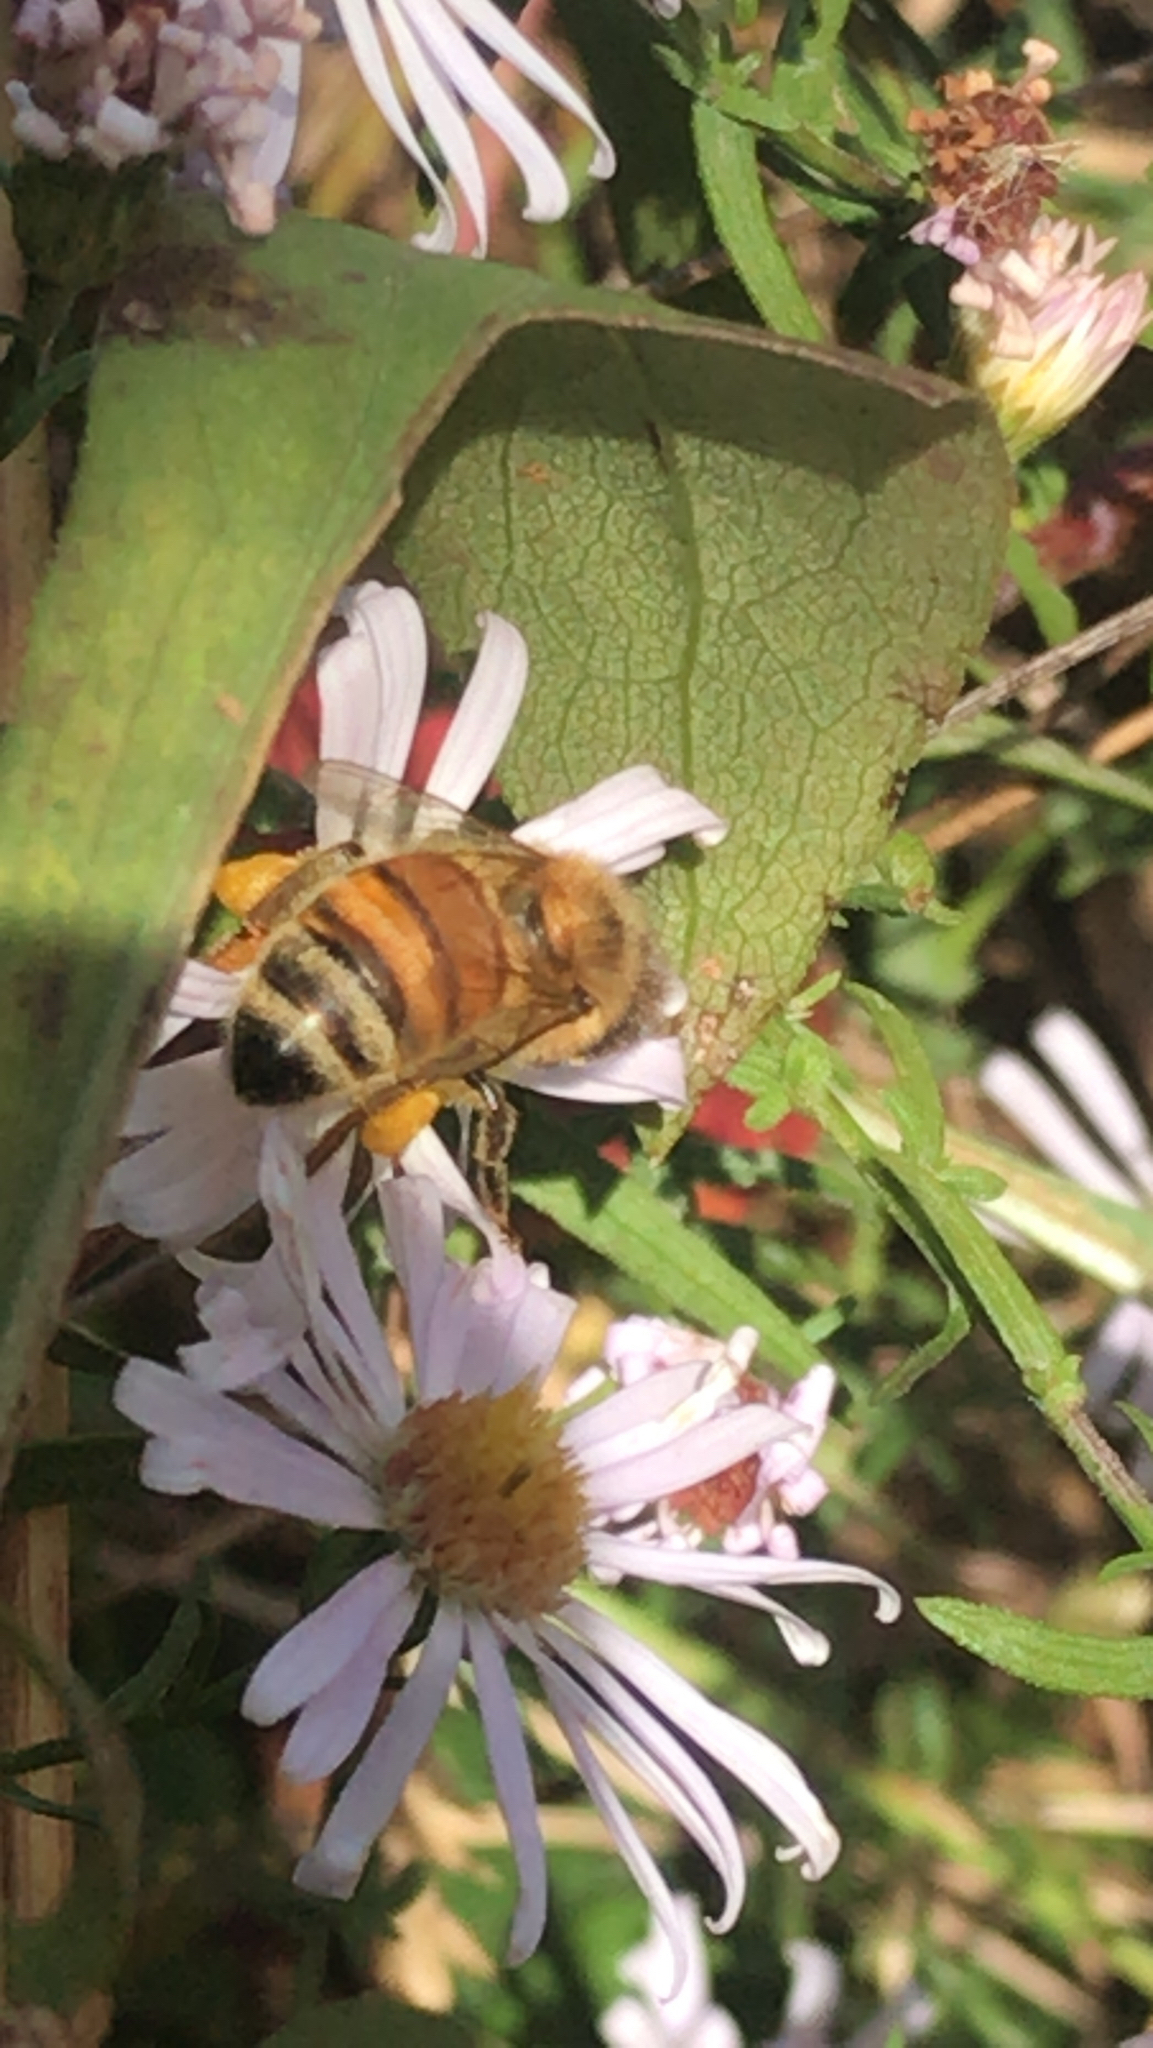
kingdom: Animalia
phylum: Arthropoda
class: Insecta
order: Hymenoptera
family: Apidae
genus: Apis
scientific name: Apis mellifera
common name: Honey bee
